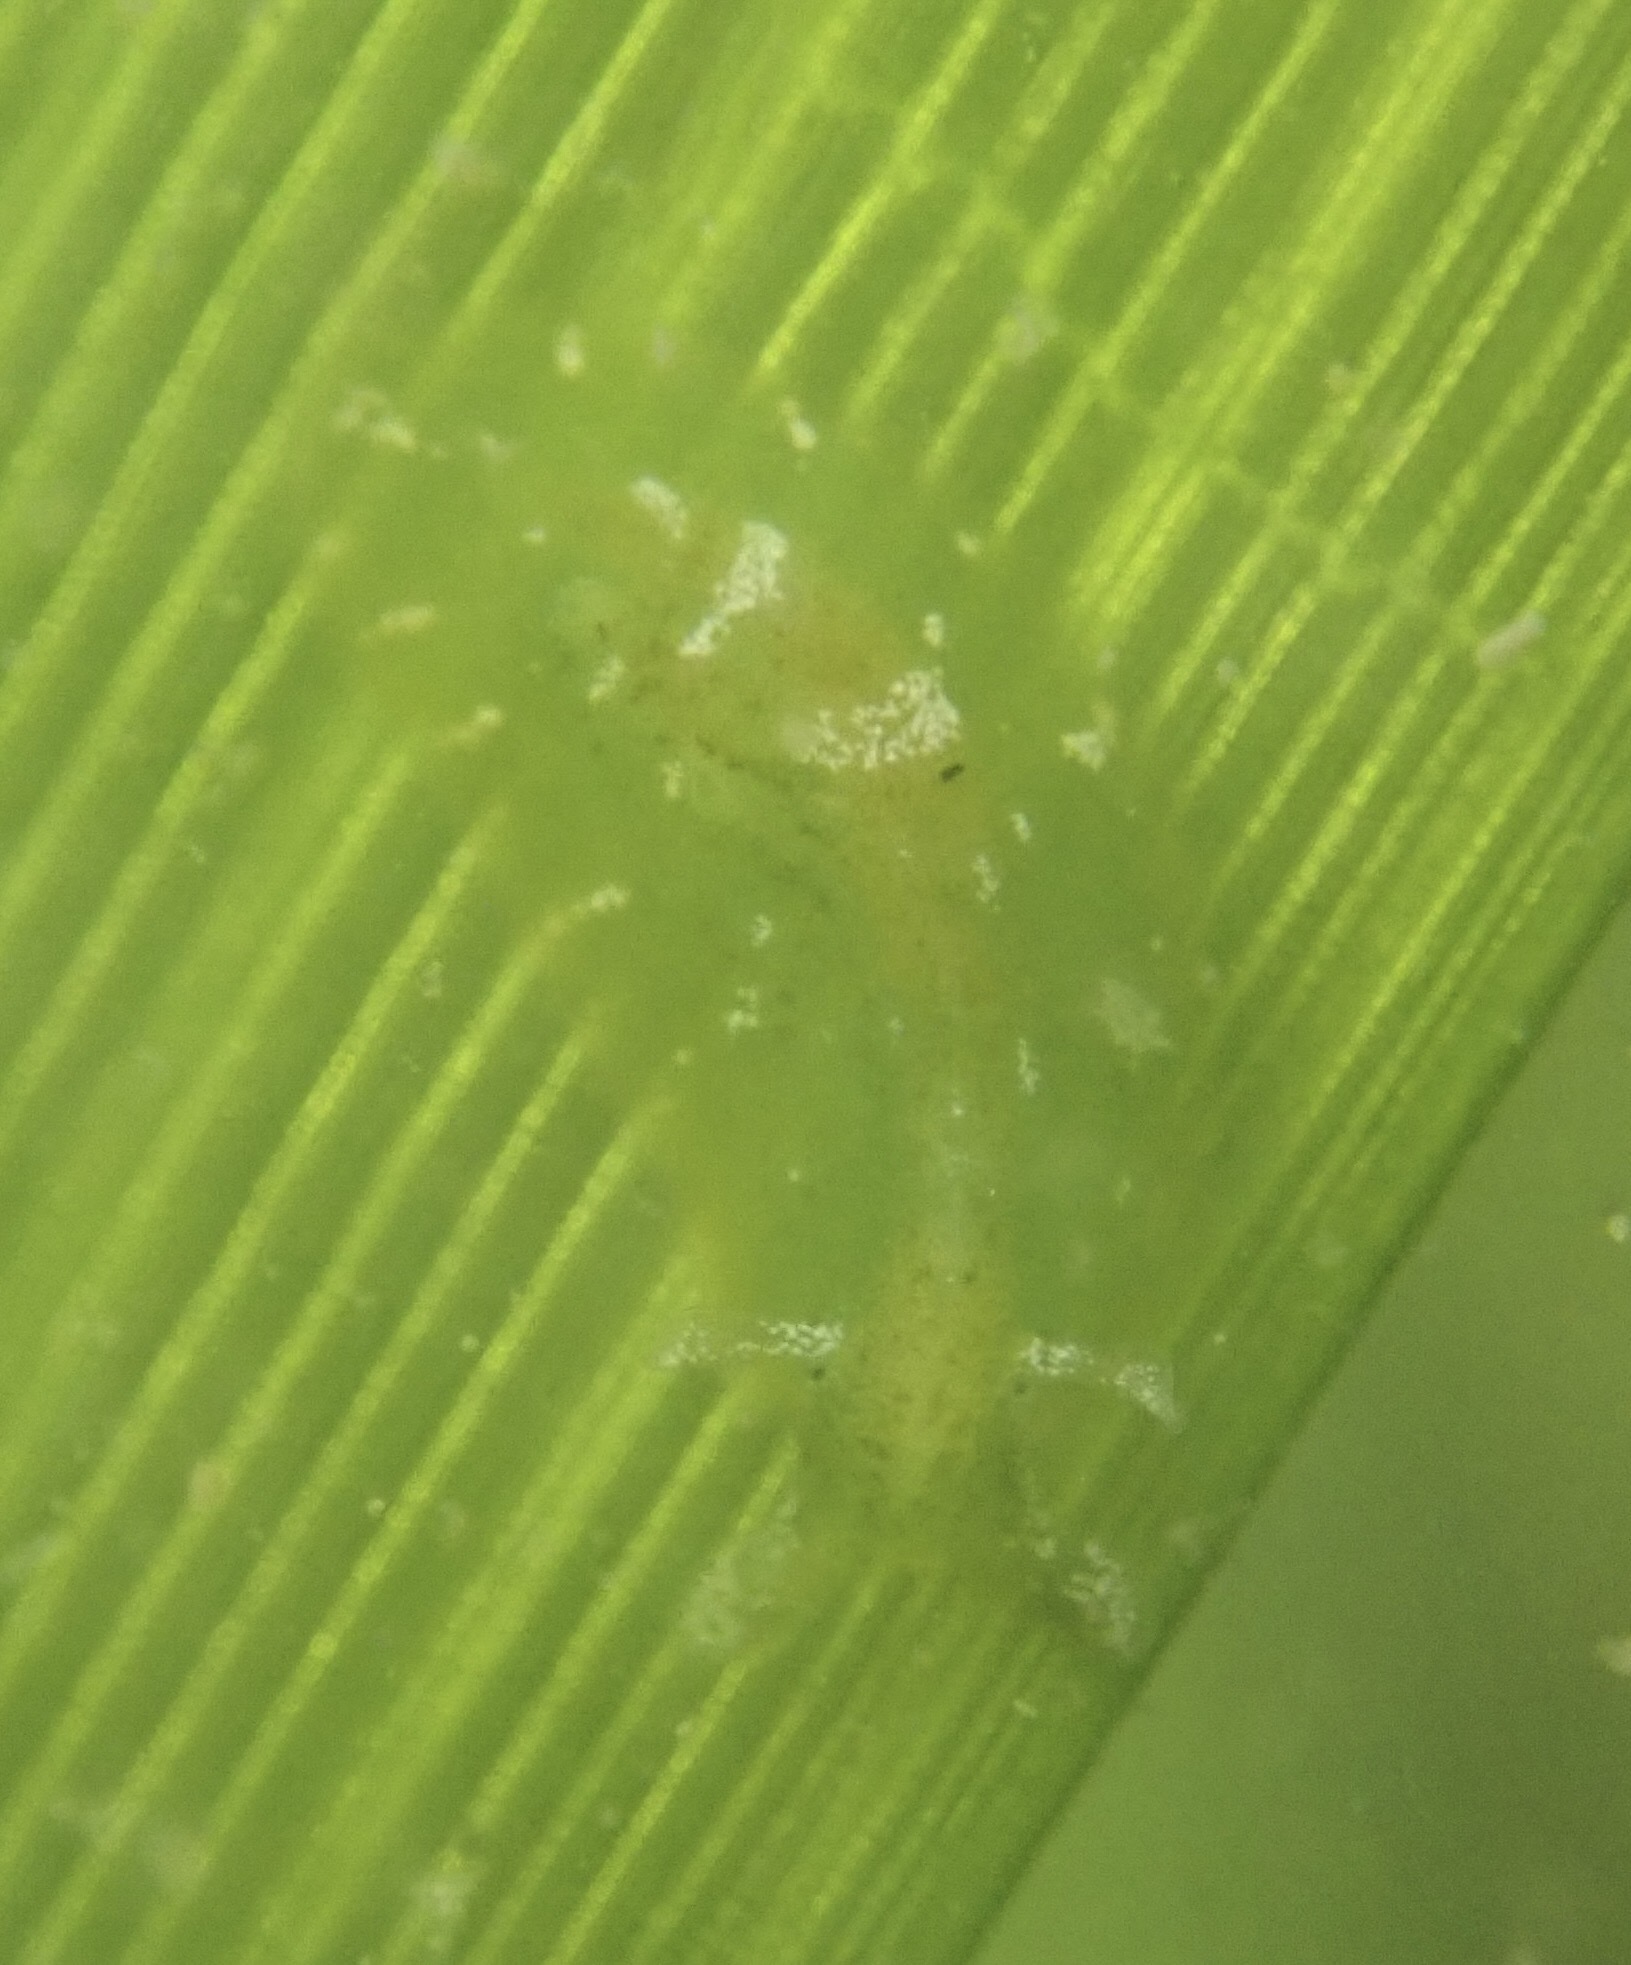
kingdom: Animalia
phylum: Mollusca
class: Gastropoda
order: Aplysiida
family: Aplysiidae
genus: Phyllaplysia
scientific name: Phyllaplysia taylori
